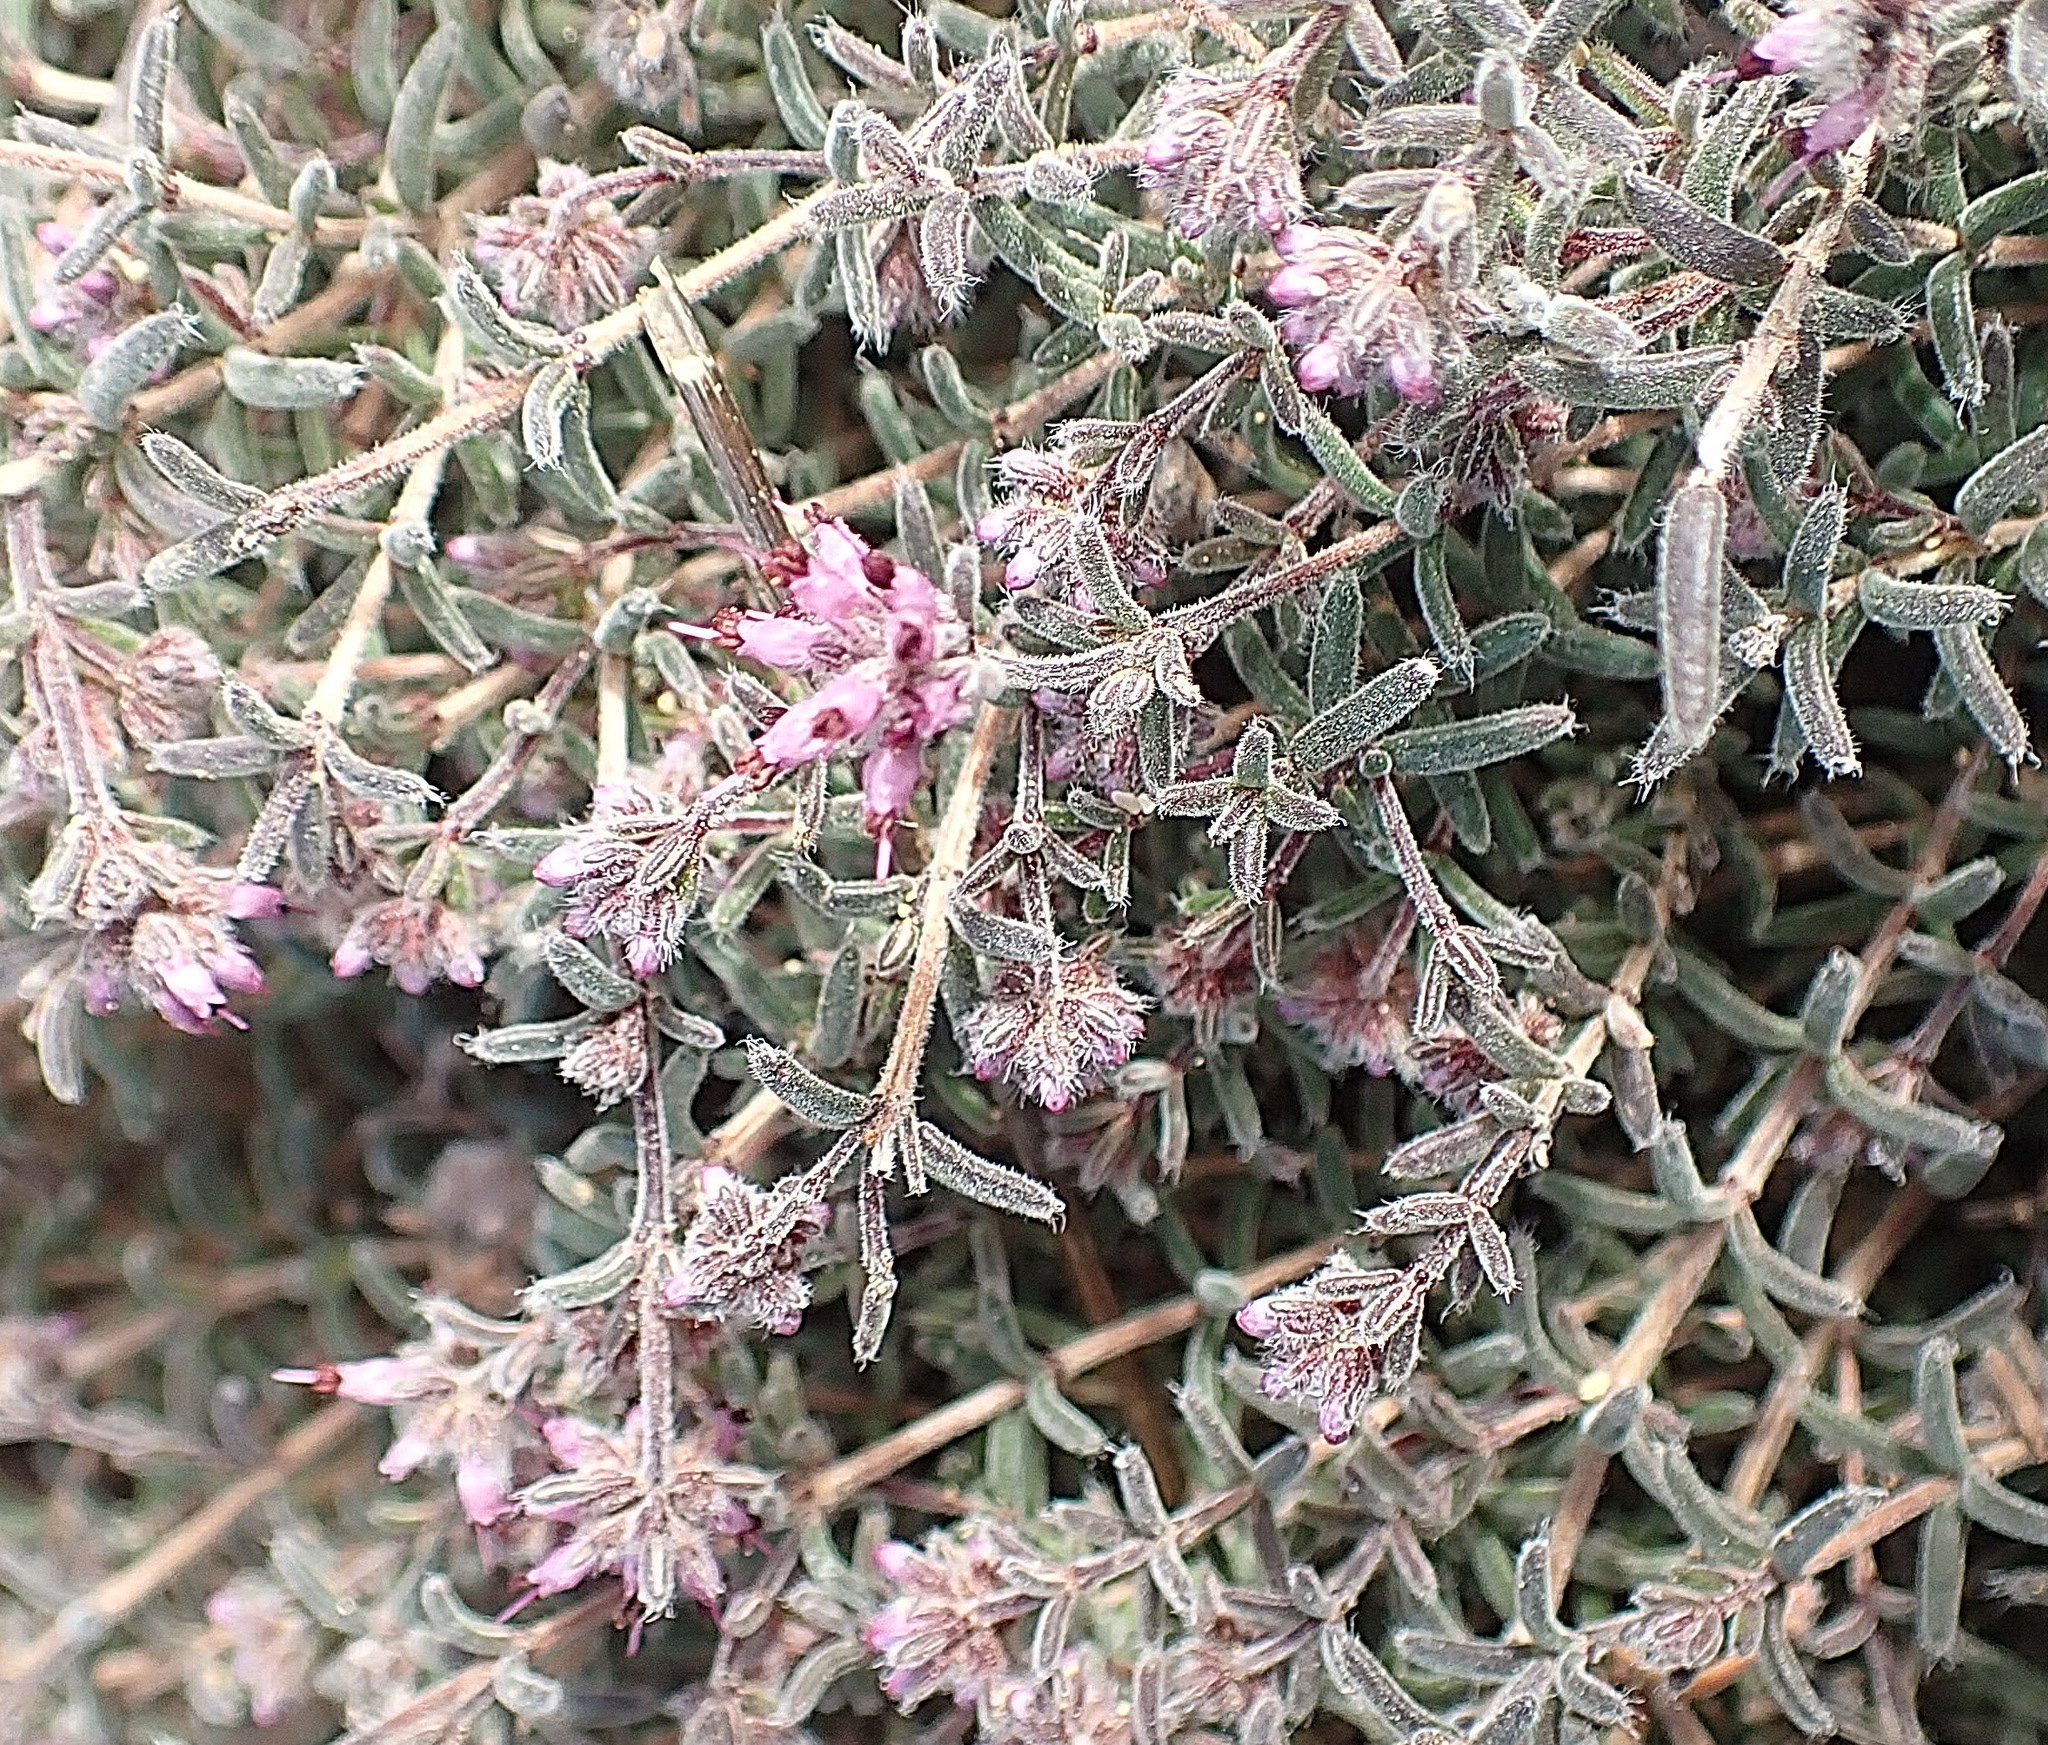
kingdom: Plantae
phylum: Tracheophyta
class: Magnoliopsida
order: Ericales
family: Ericaceae
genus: Erica
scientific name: Erica similis
